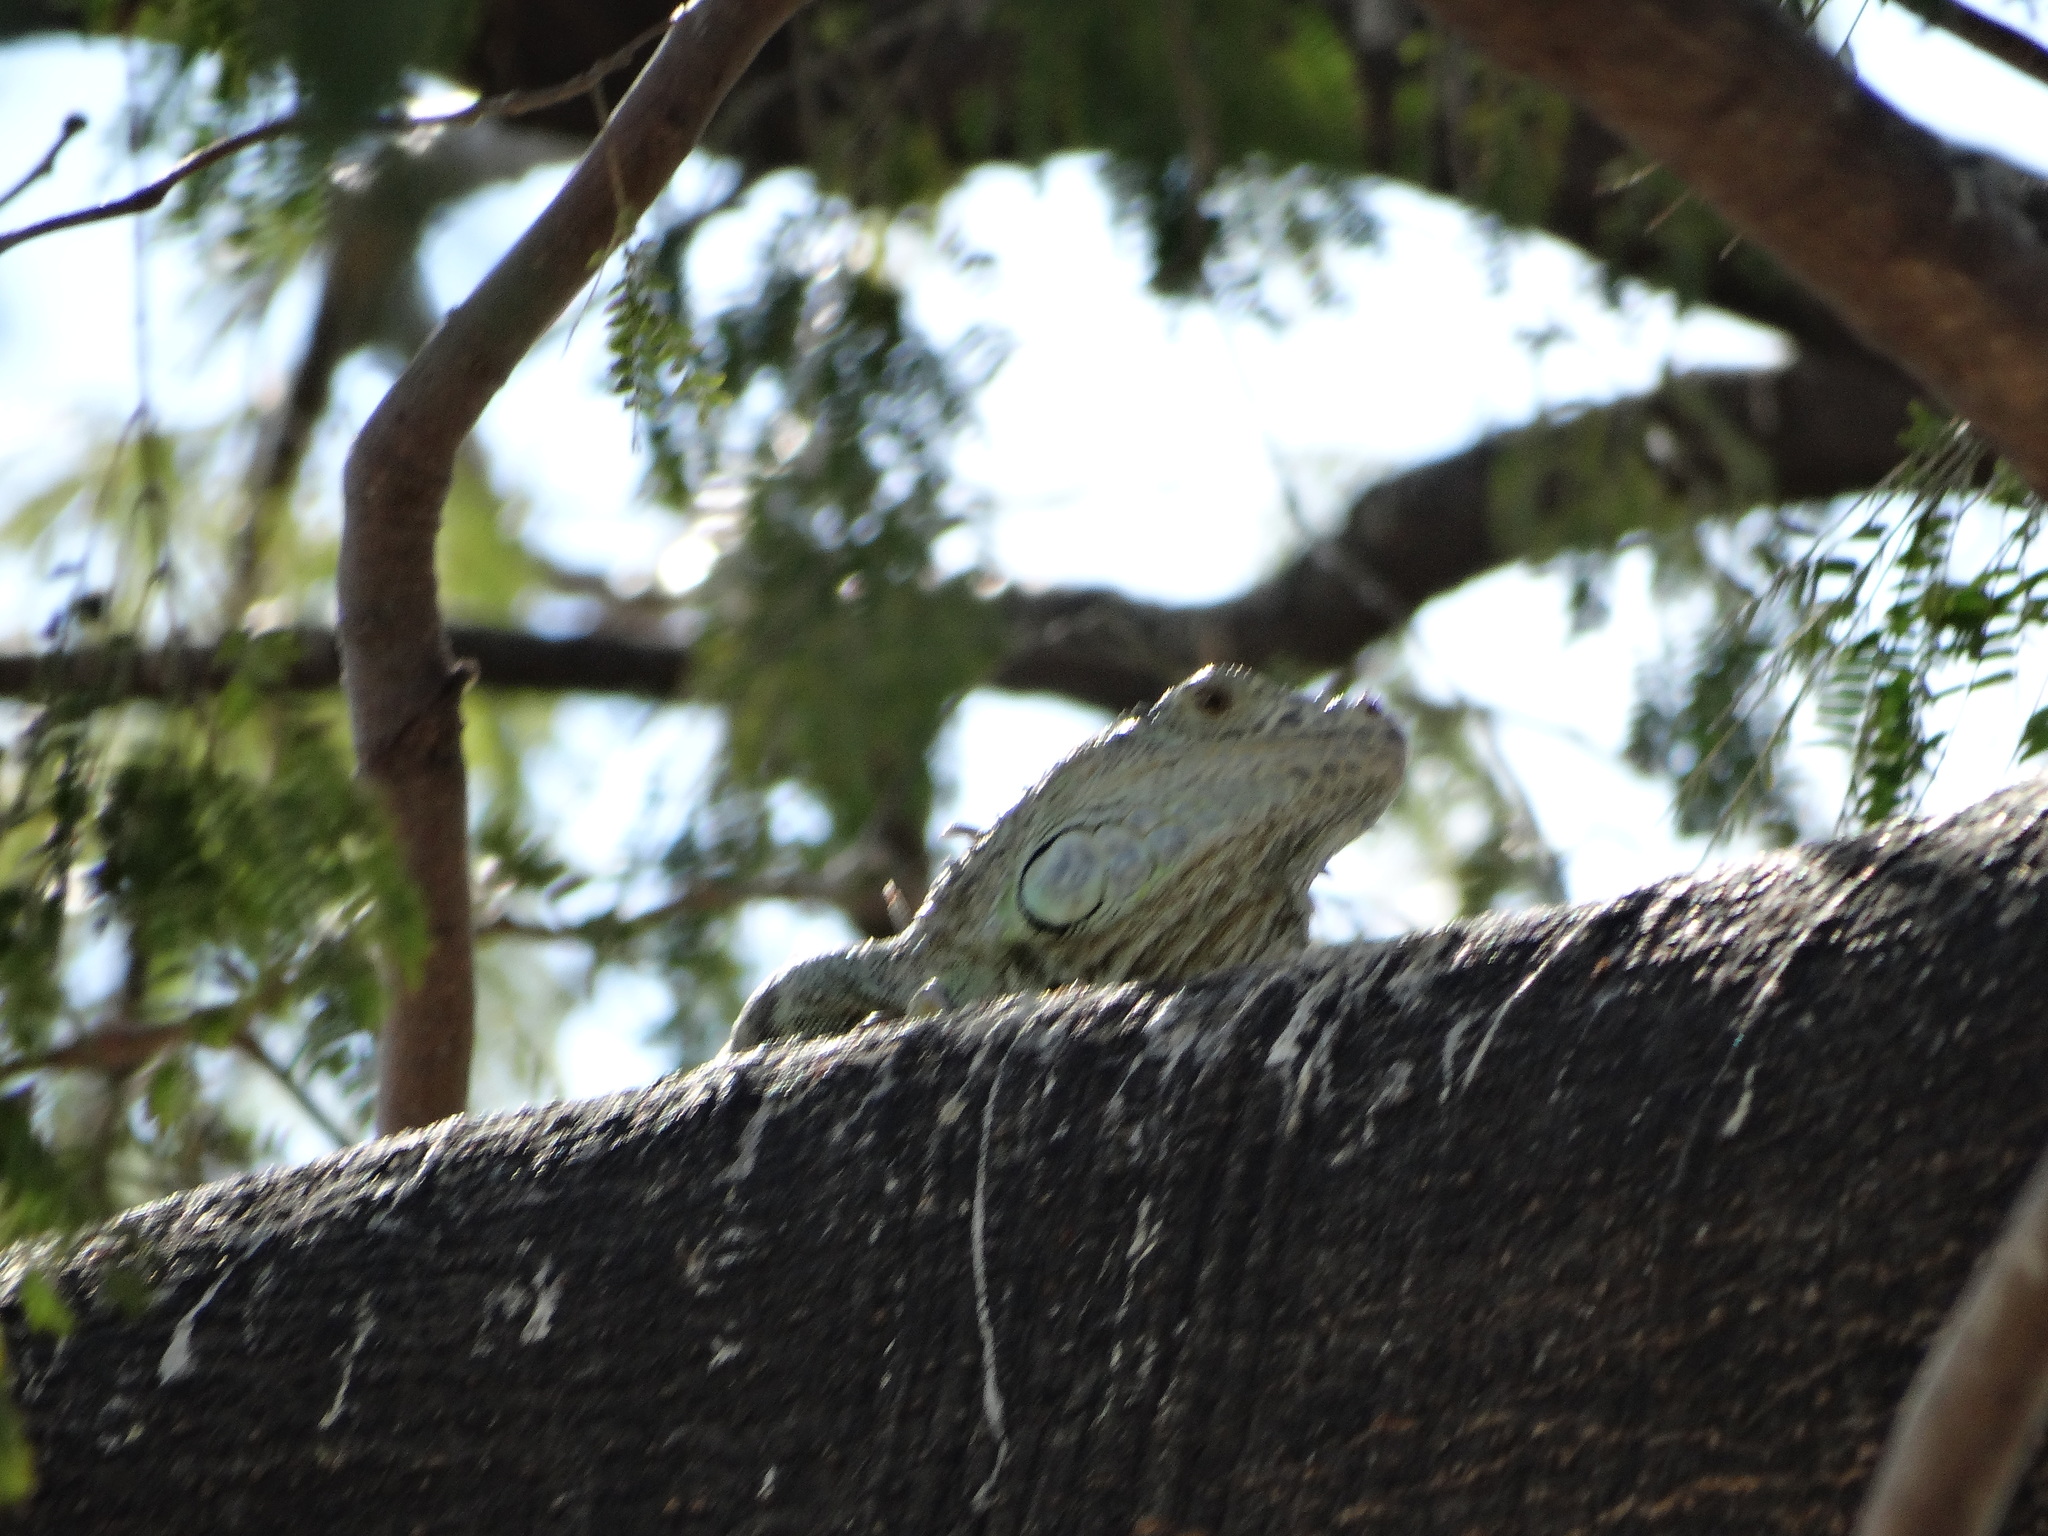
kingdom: Animalia
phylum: Chordata
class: Squamata
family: Iguanidae
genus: Iguana
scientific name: Iguana iguana
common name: Green iguana
